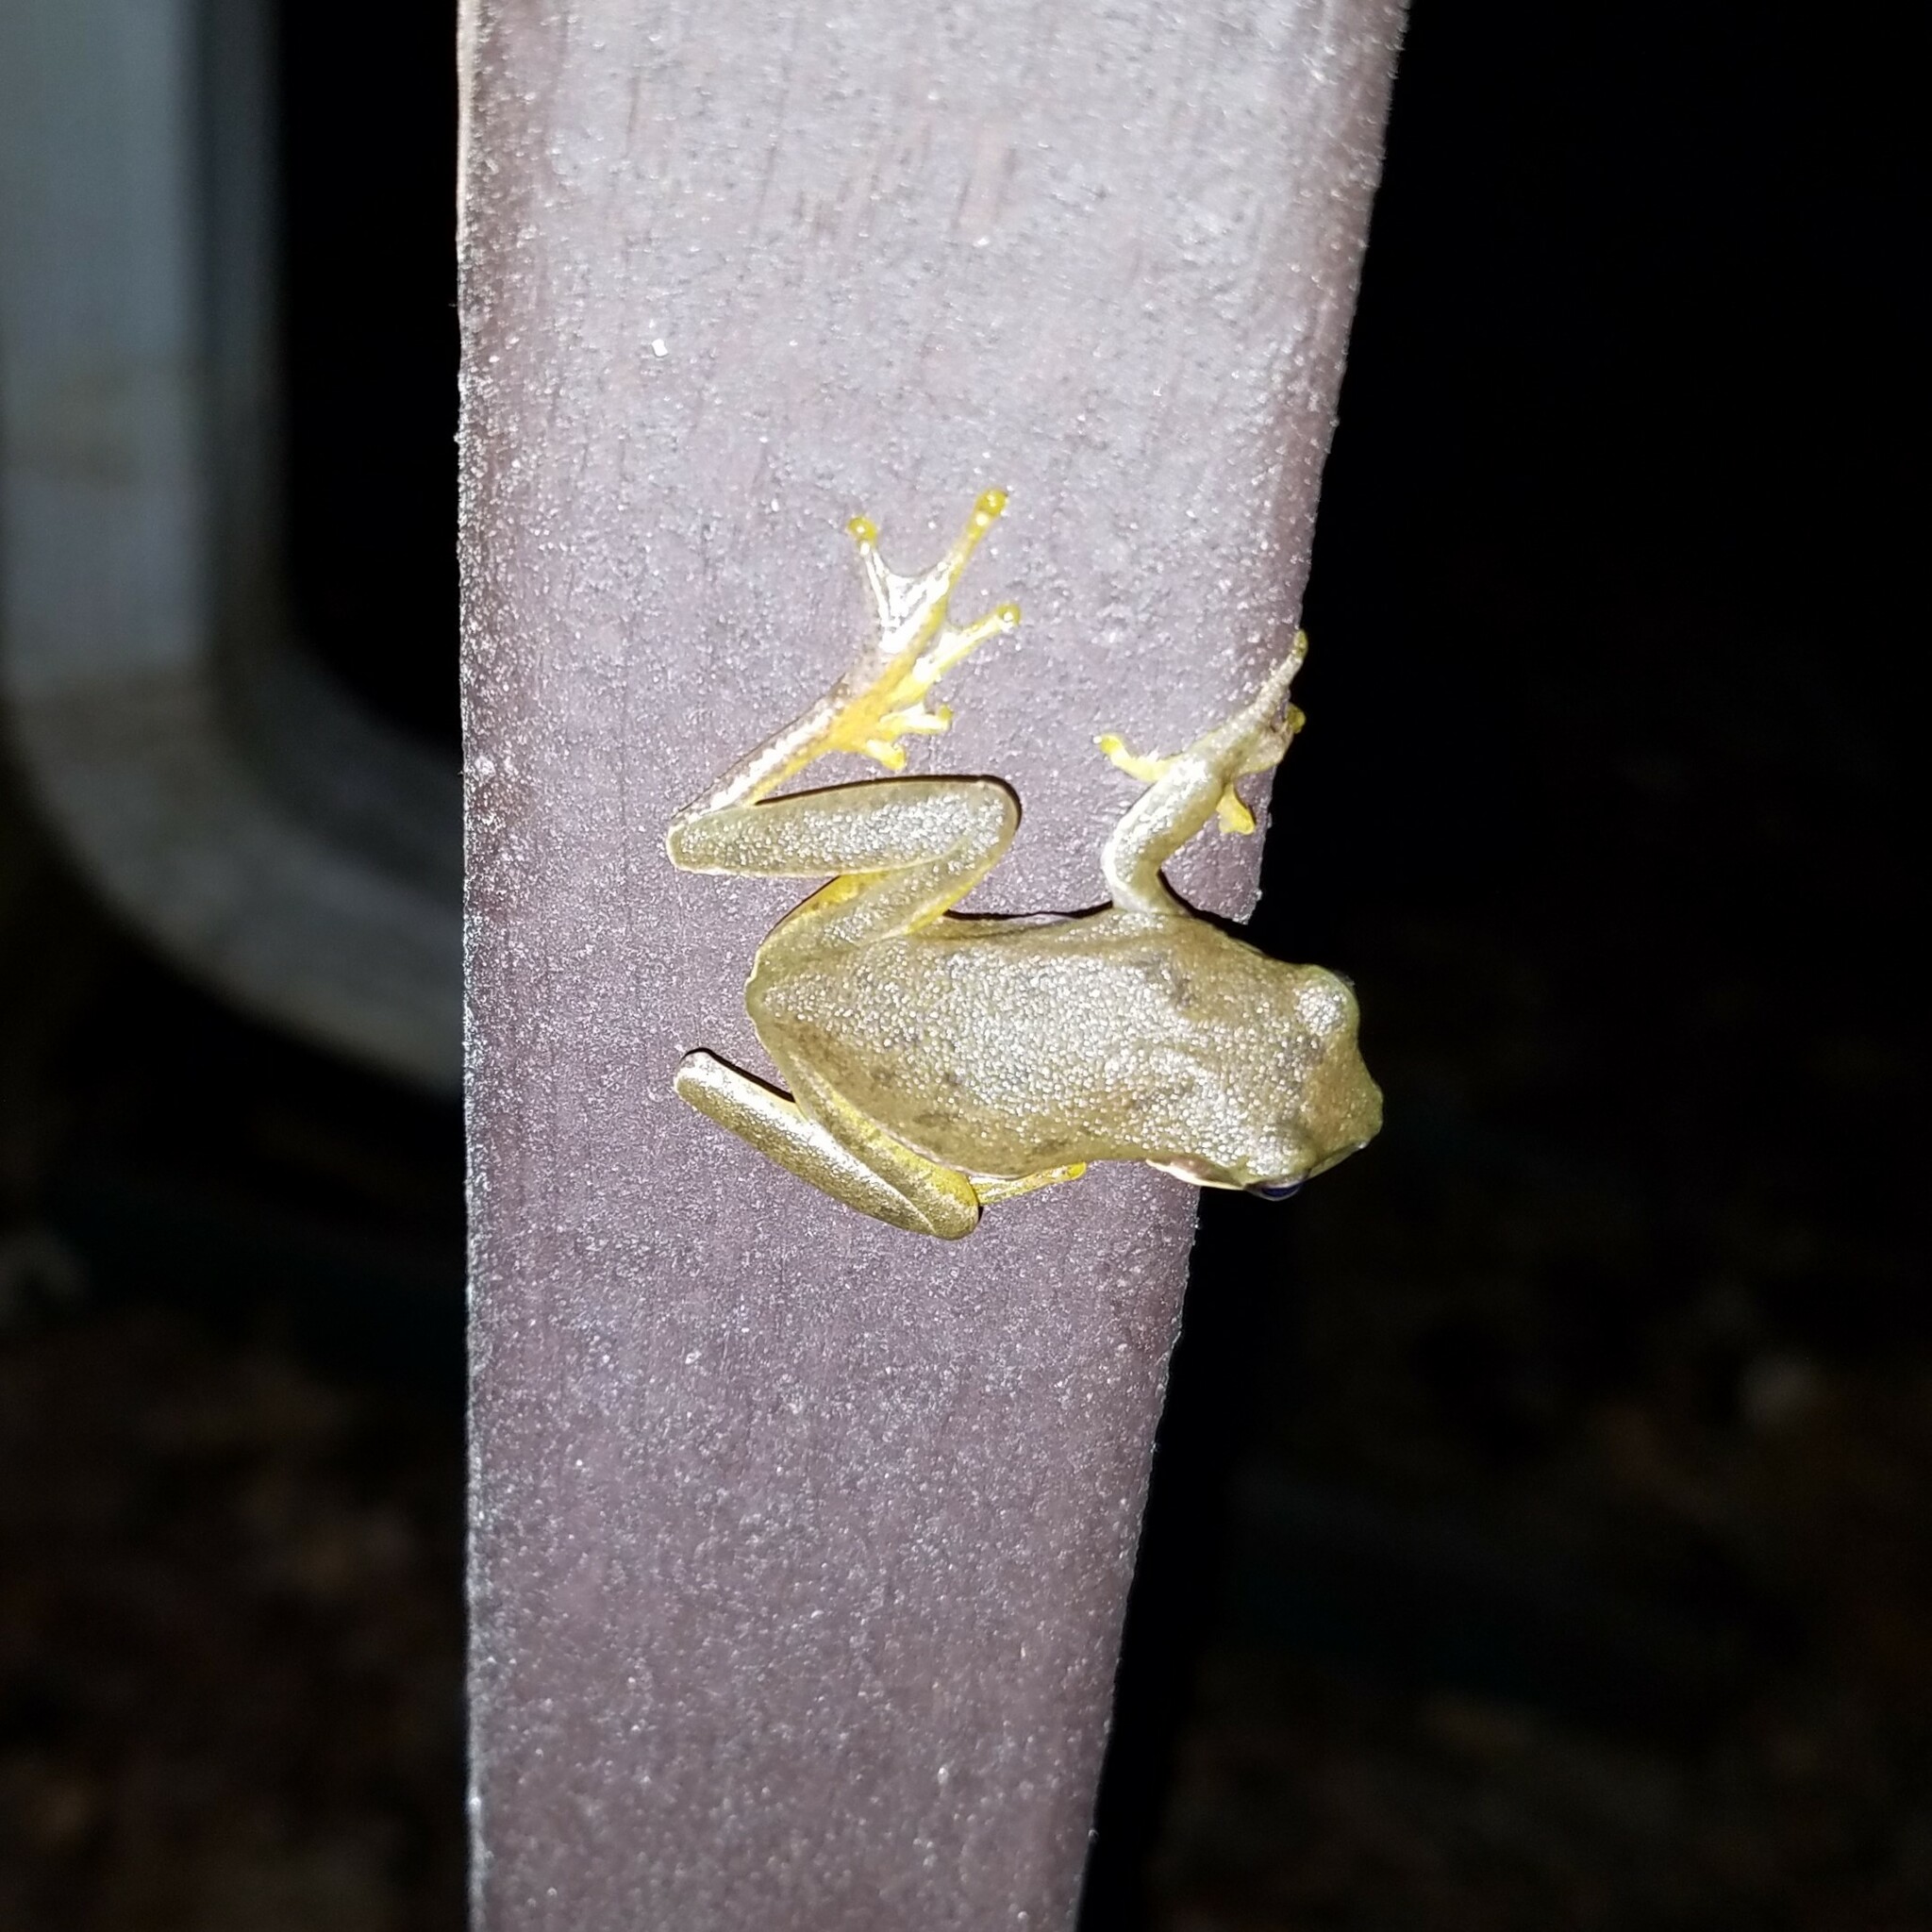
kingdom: Animalia
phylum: Chordata
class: Amphibia
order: Anura
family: Hylidae
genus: Dryophytes
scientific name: Dryophytes squirellus
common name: Squirrel treefrog
